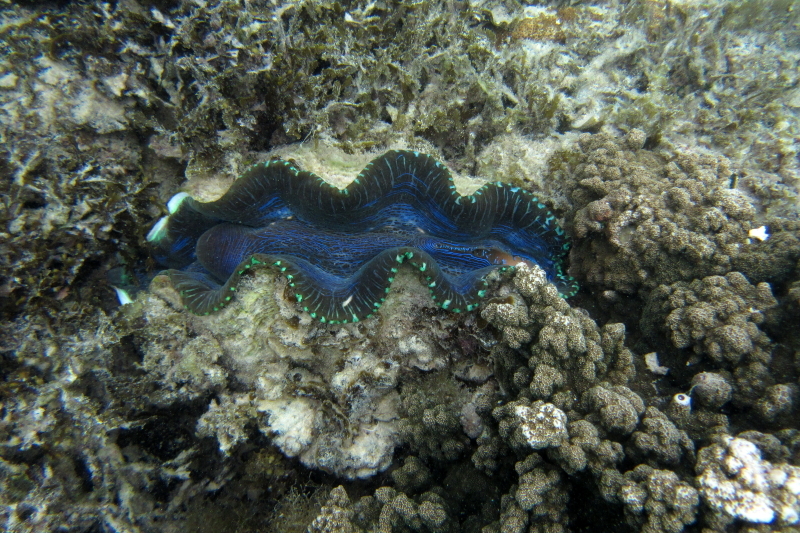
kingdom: Animalia
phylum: Mollusca
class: Bivalvia
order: Cardiida
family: Cardiidae
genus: Tridacna
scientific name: Tridacna derasa
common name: Southern giant clam
